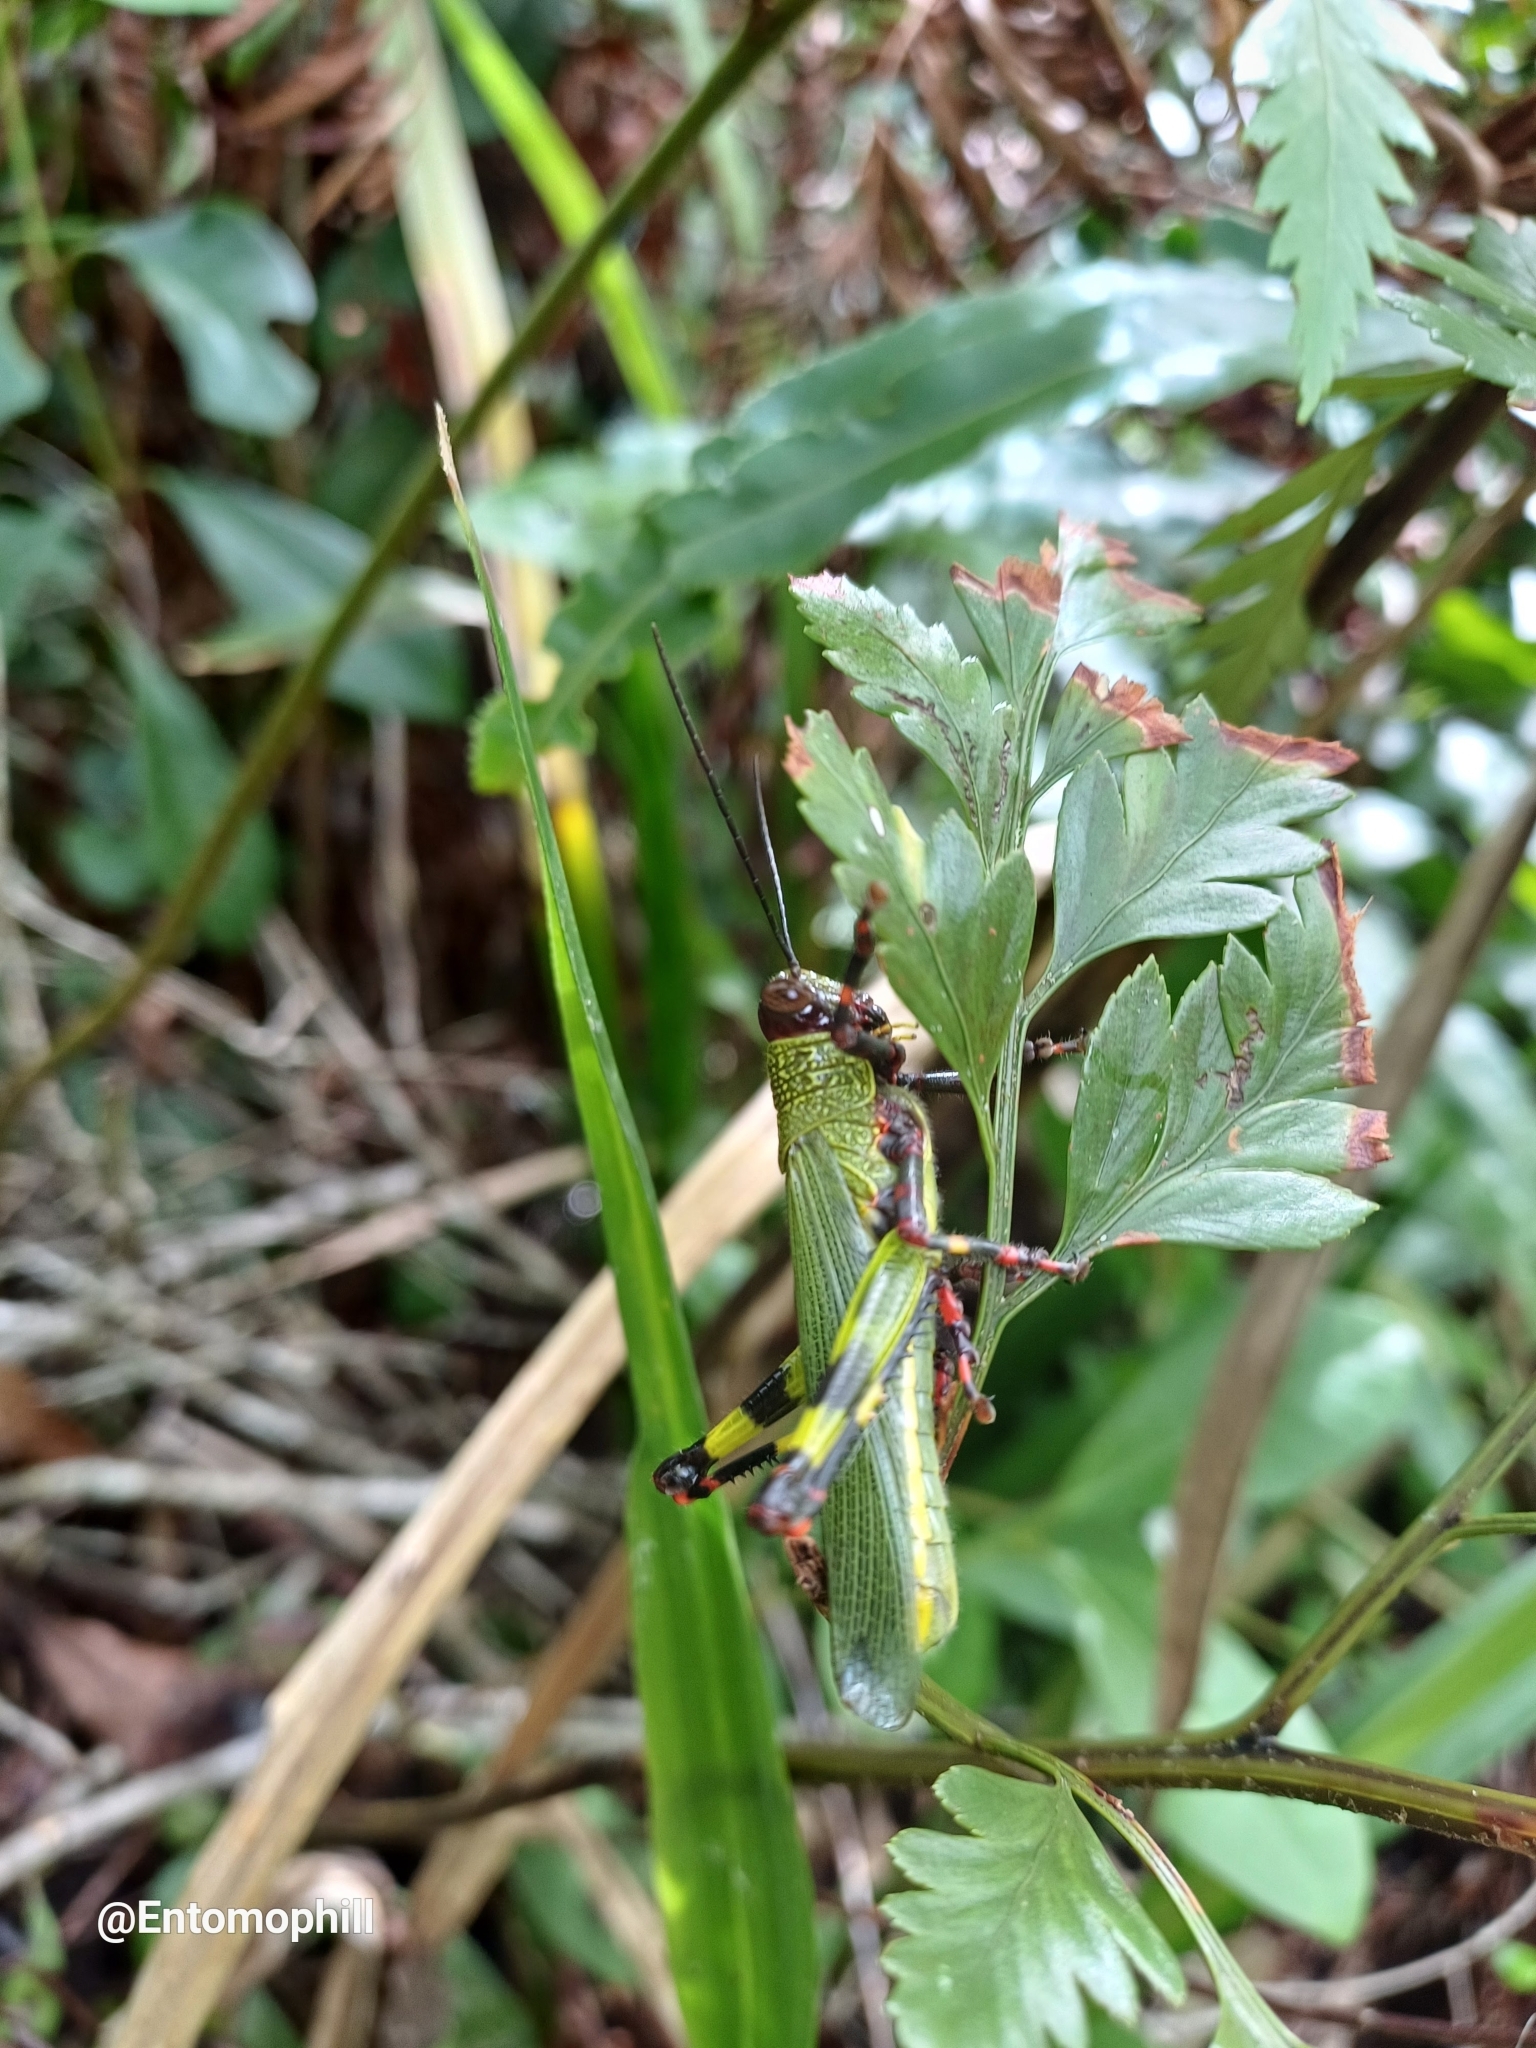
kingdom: Animalia
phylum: Arthropoda
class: Insecta
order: Orthoptera
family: Romaleidae
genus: Zoniopoda
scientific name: Zoniopoda tarsata
